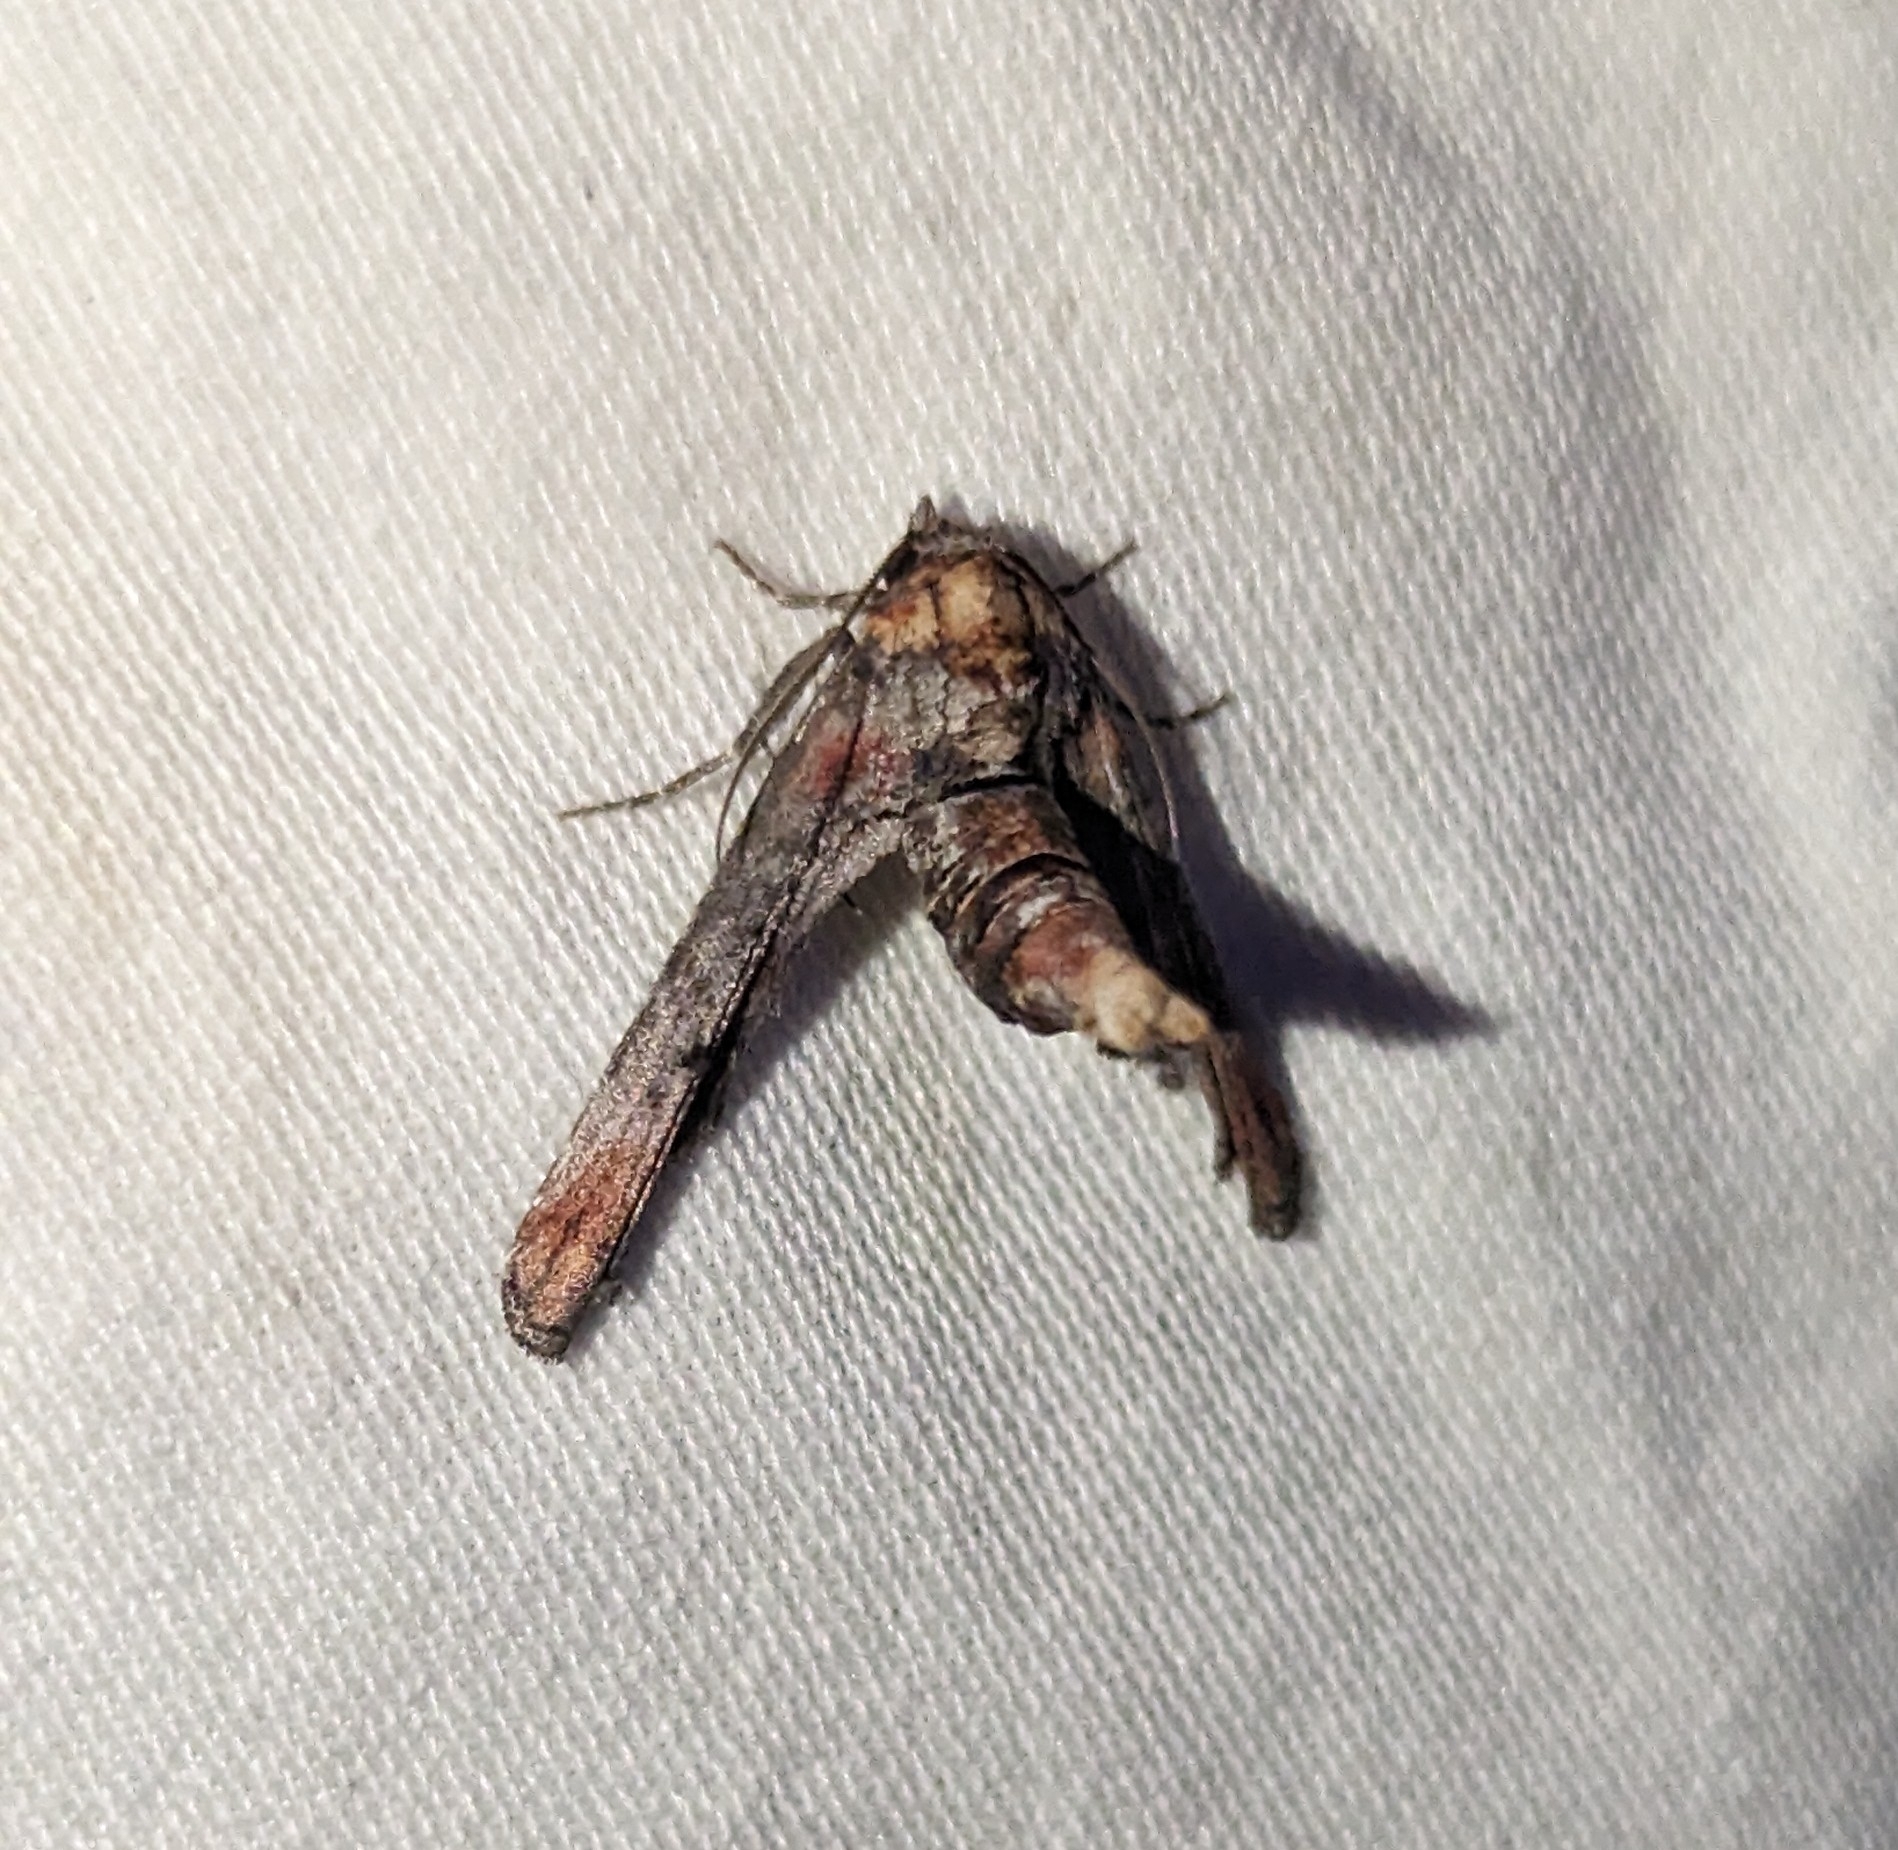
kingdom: Animalia
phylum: Arthropoda
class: Insecta
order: Lepidoptera
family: Euteliidae
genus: Marathyssa
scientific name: Marathyssa inficita
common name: Dark marathyssa moth
